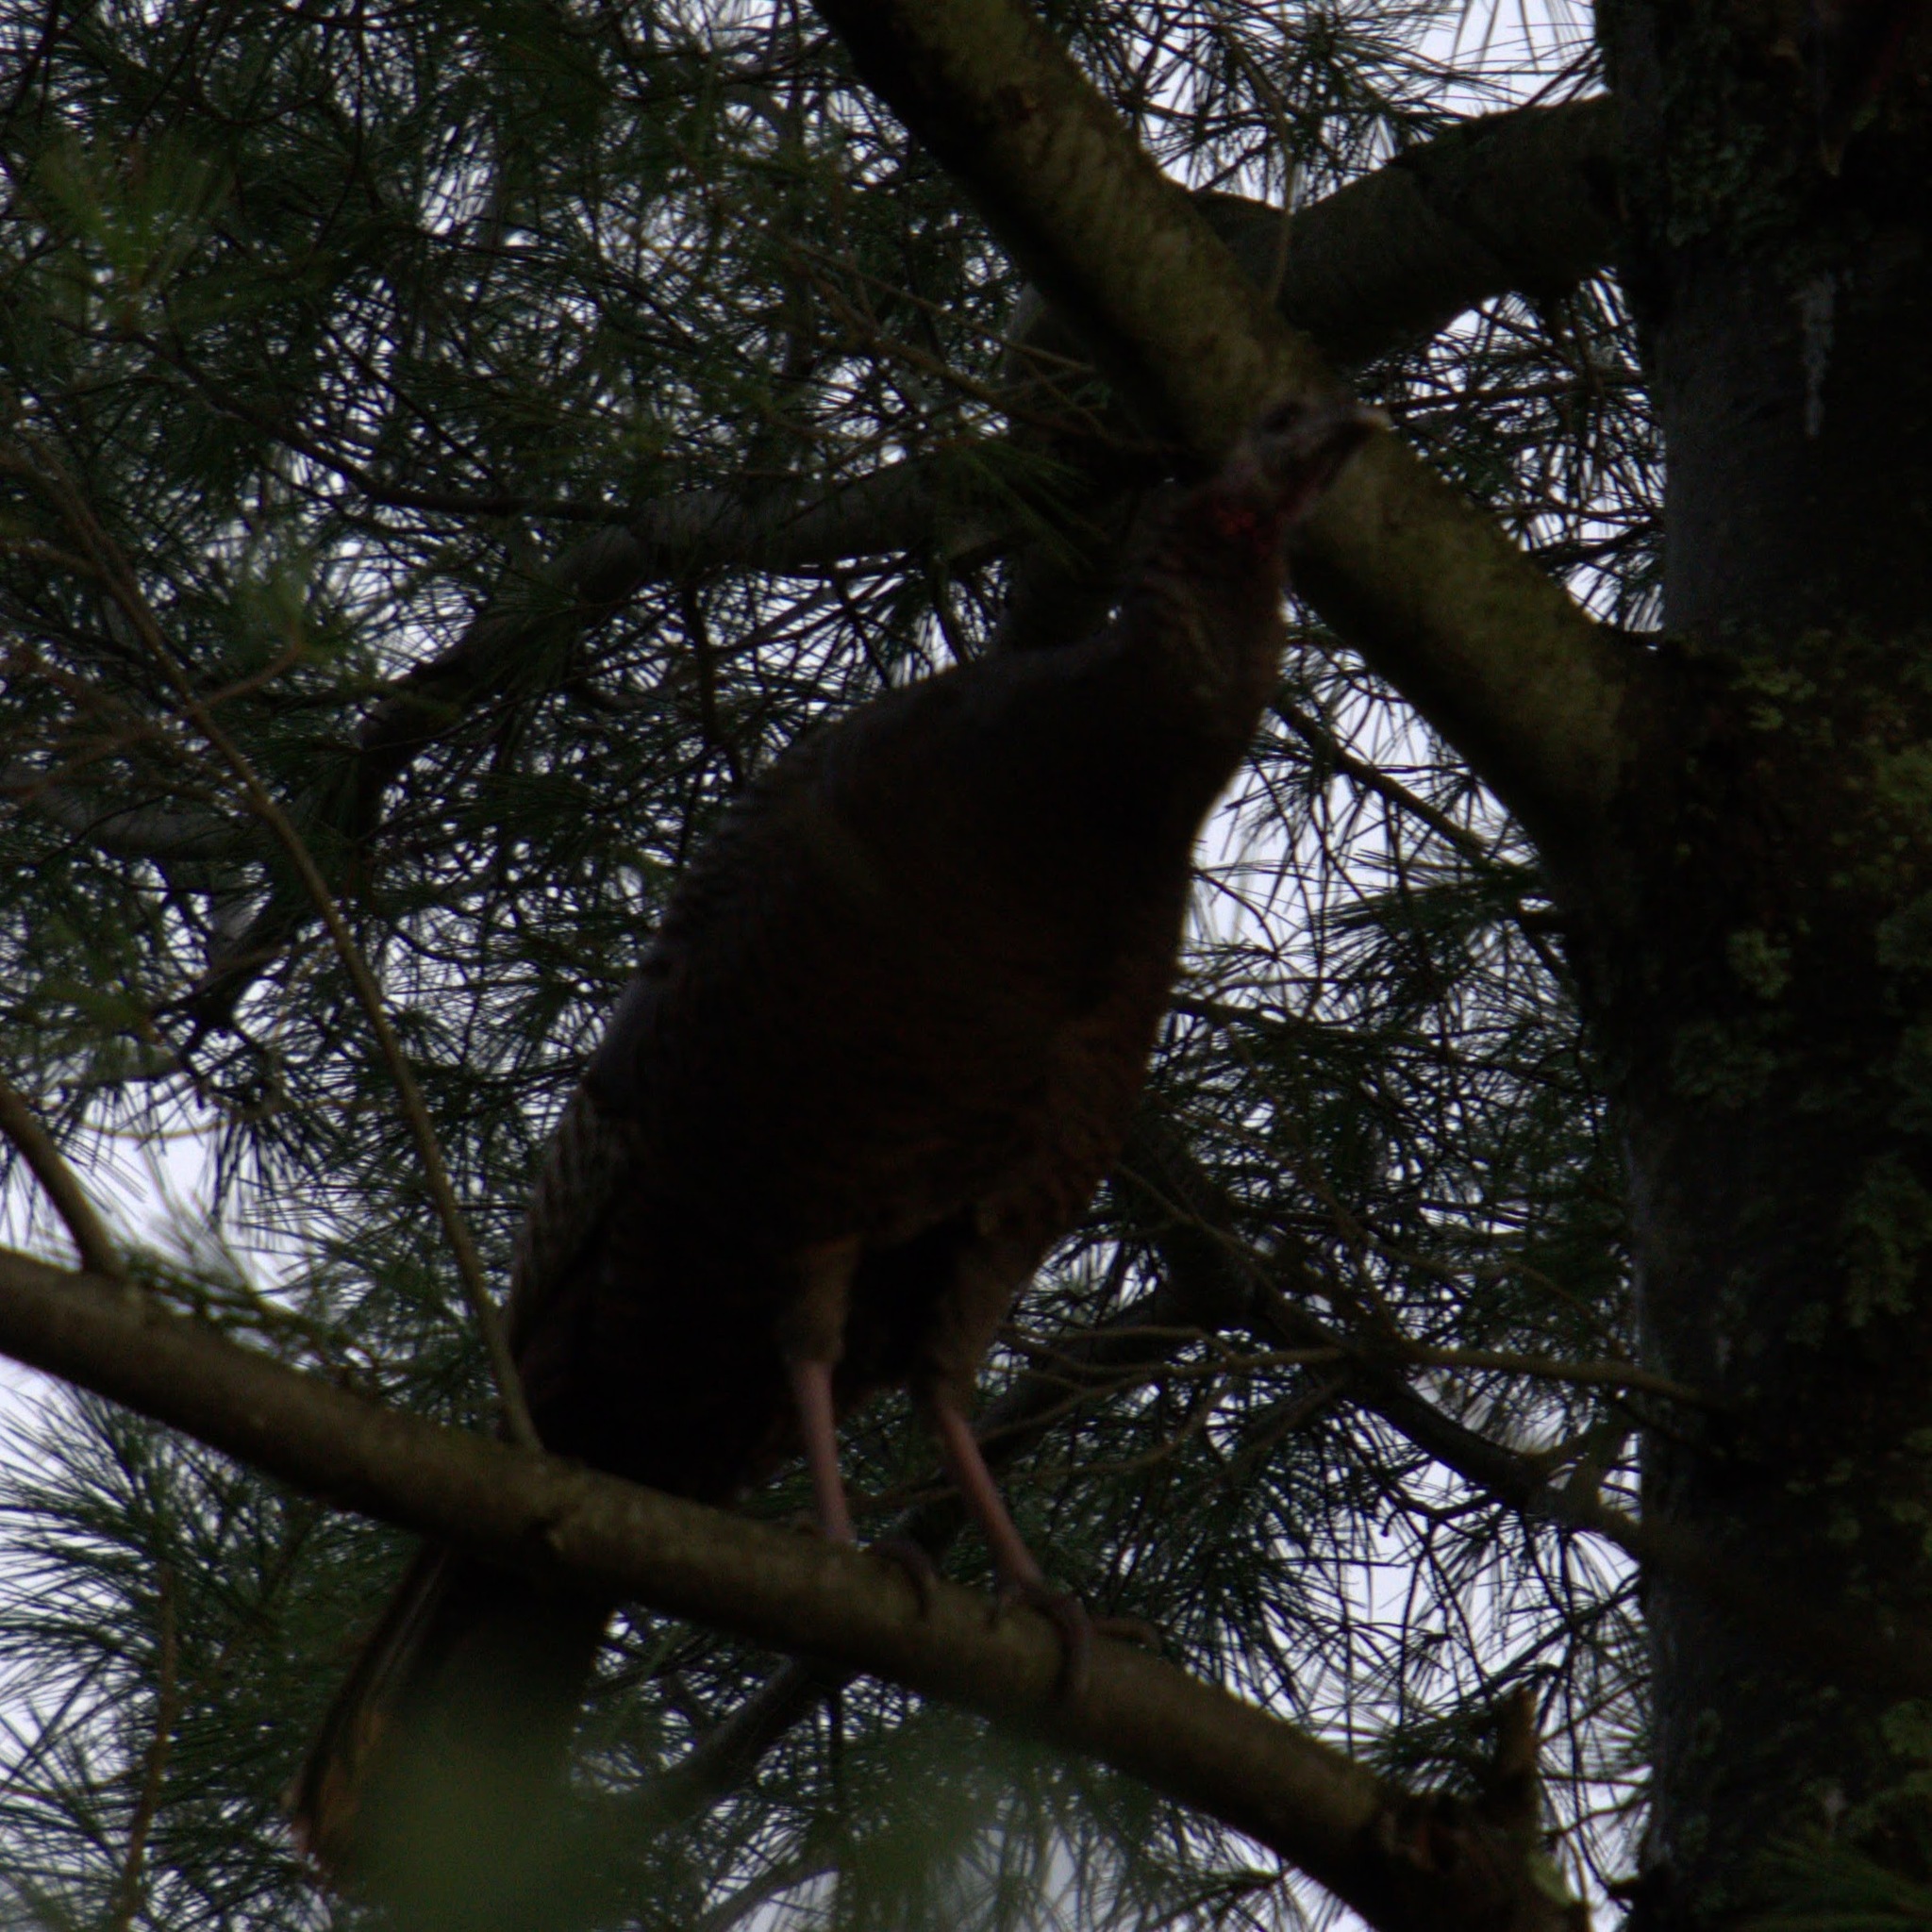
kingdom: Animalia
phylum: Chordata
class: Aves
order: Galliformes
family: Phasianidae
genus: Meleagris
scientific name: Meleagris gallopavo
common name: Wild turkey
